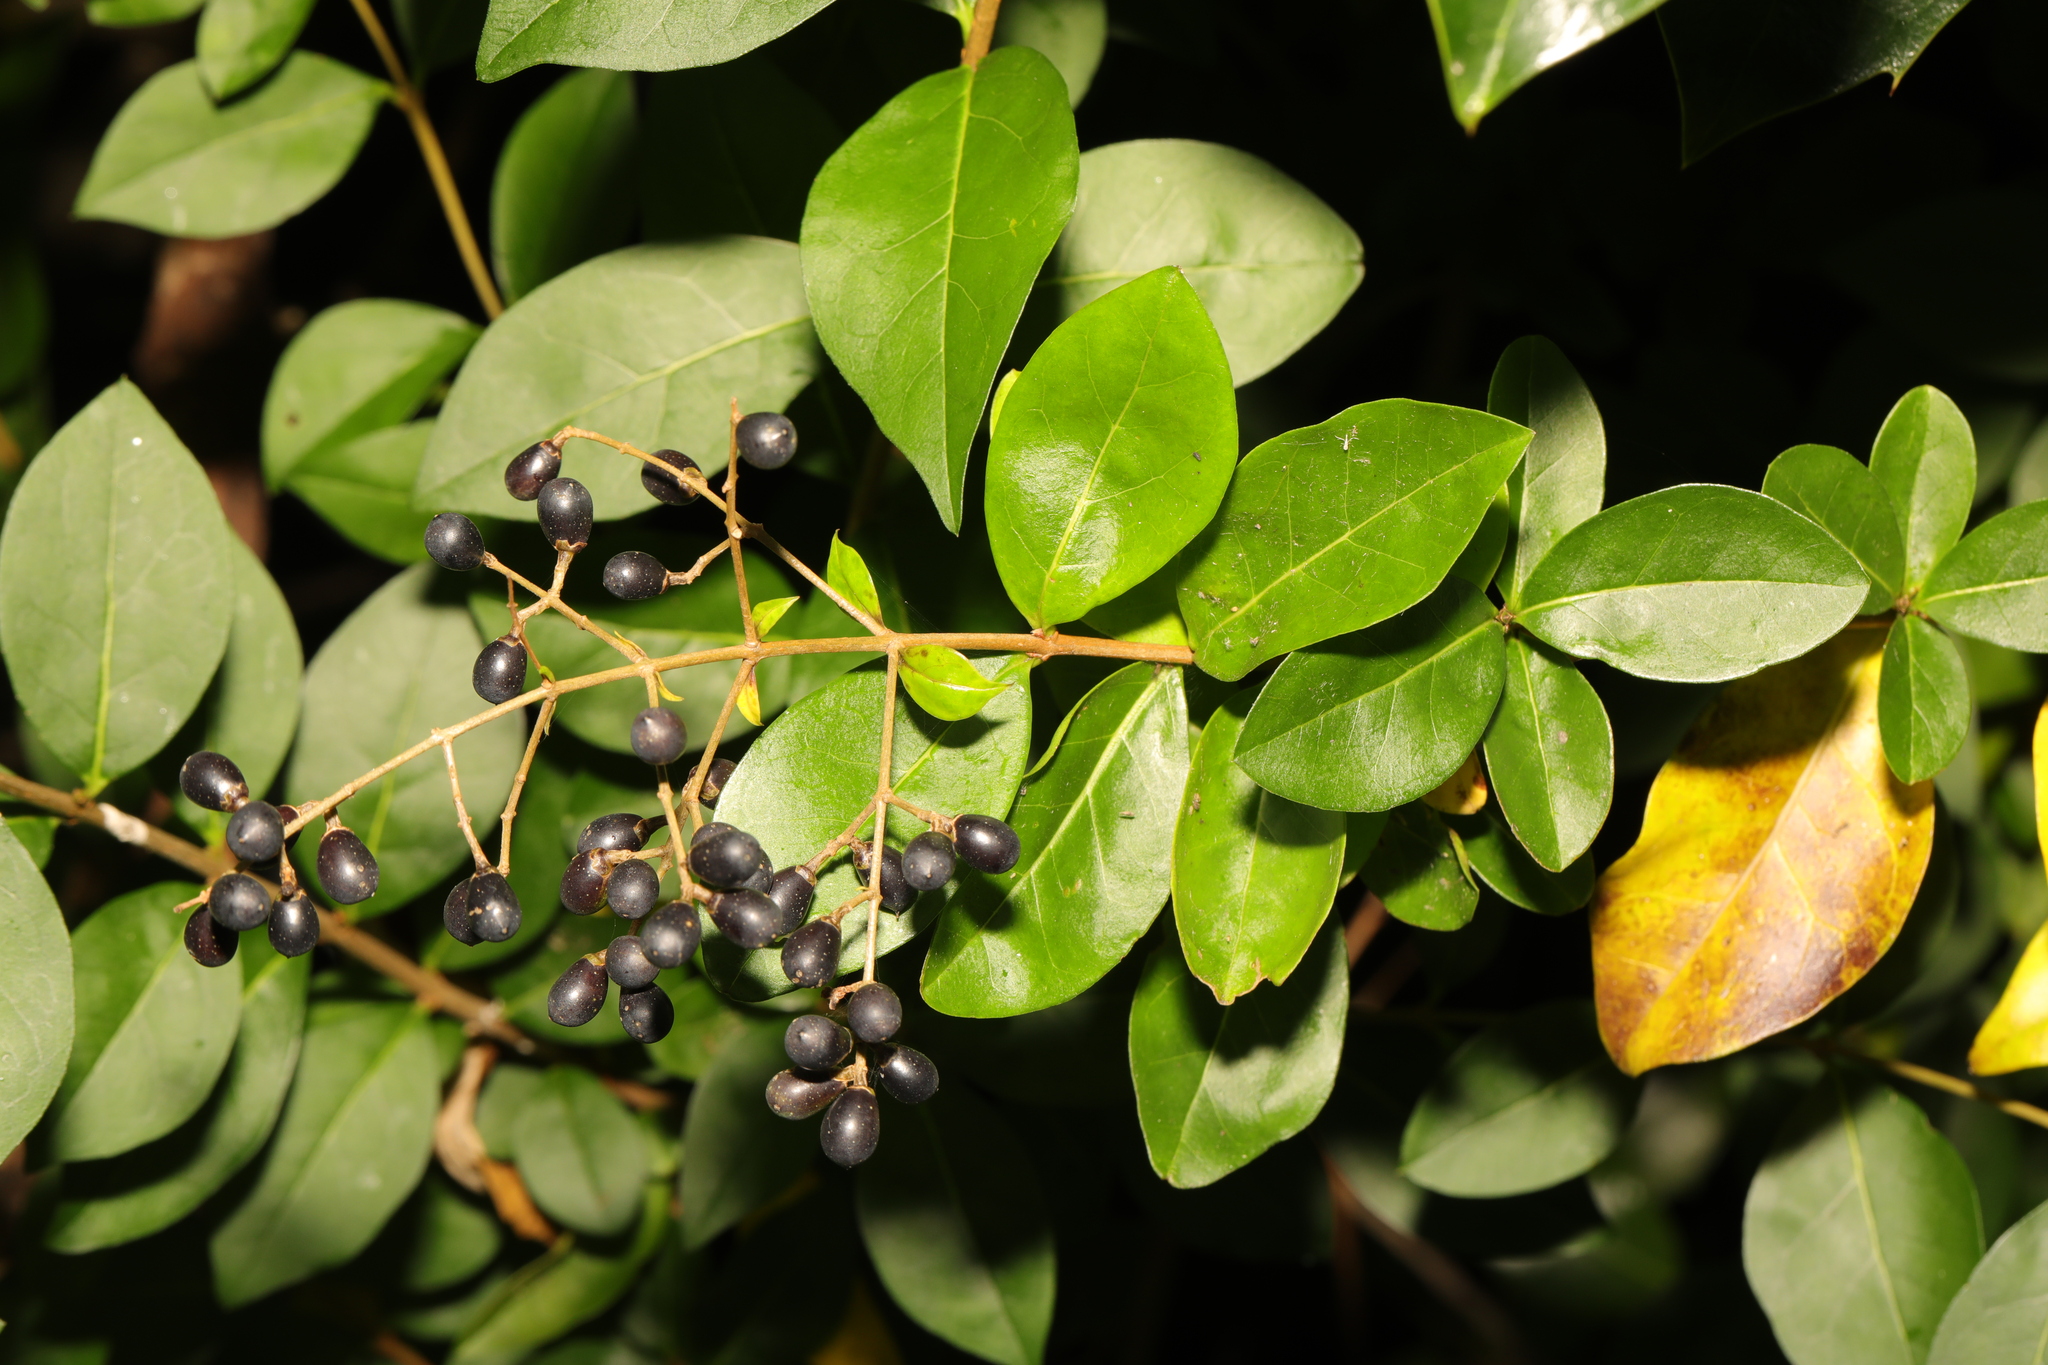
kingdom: Plantae
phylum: Tracheophyta
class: Magnoliopsida
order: Lamiales
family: Oleaceae
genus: Ligustrum
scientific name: Ligustrum ovalifolium
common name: California privet
